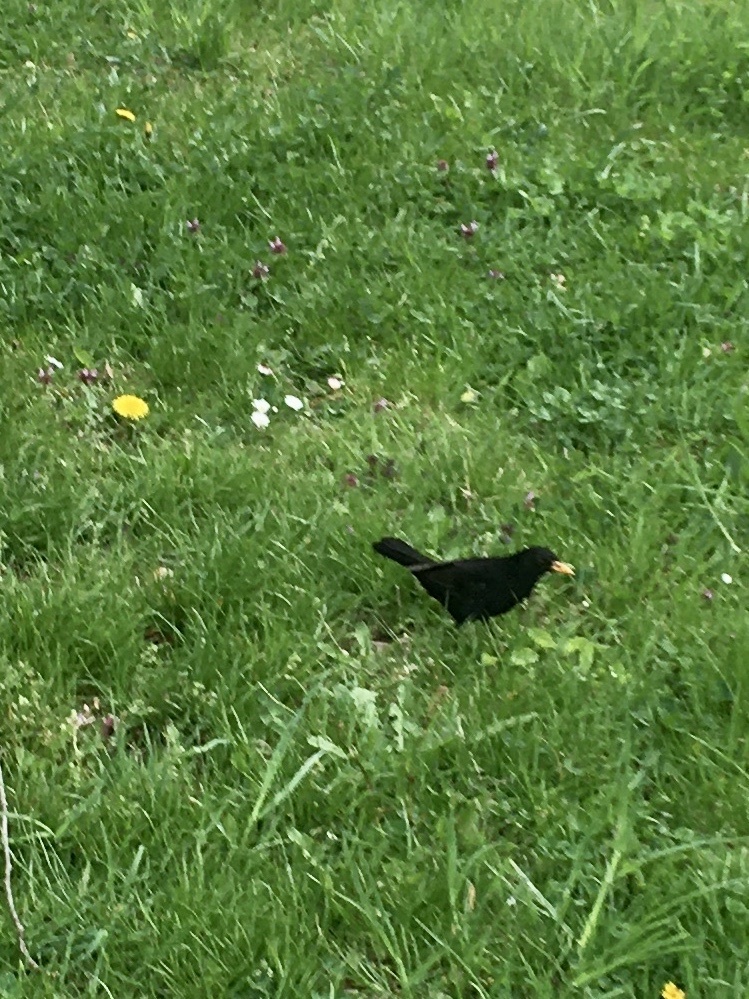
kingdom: Animalia
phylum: Chordata
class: Aves
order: Passeriformes
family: Turdidae
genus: Turdus
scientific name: Turdus merula
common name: Common blackbird
